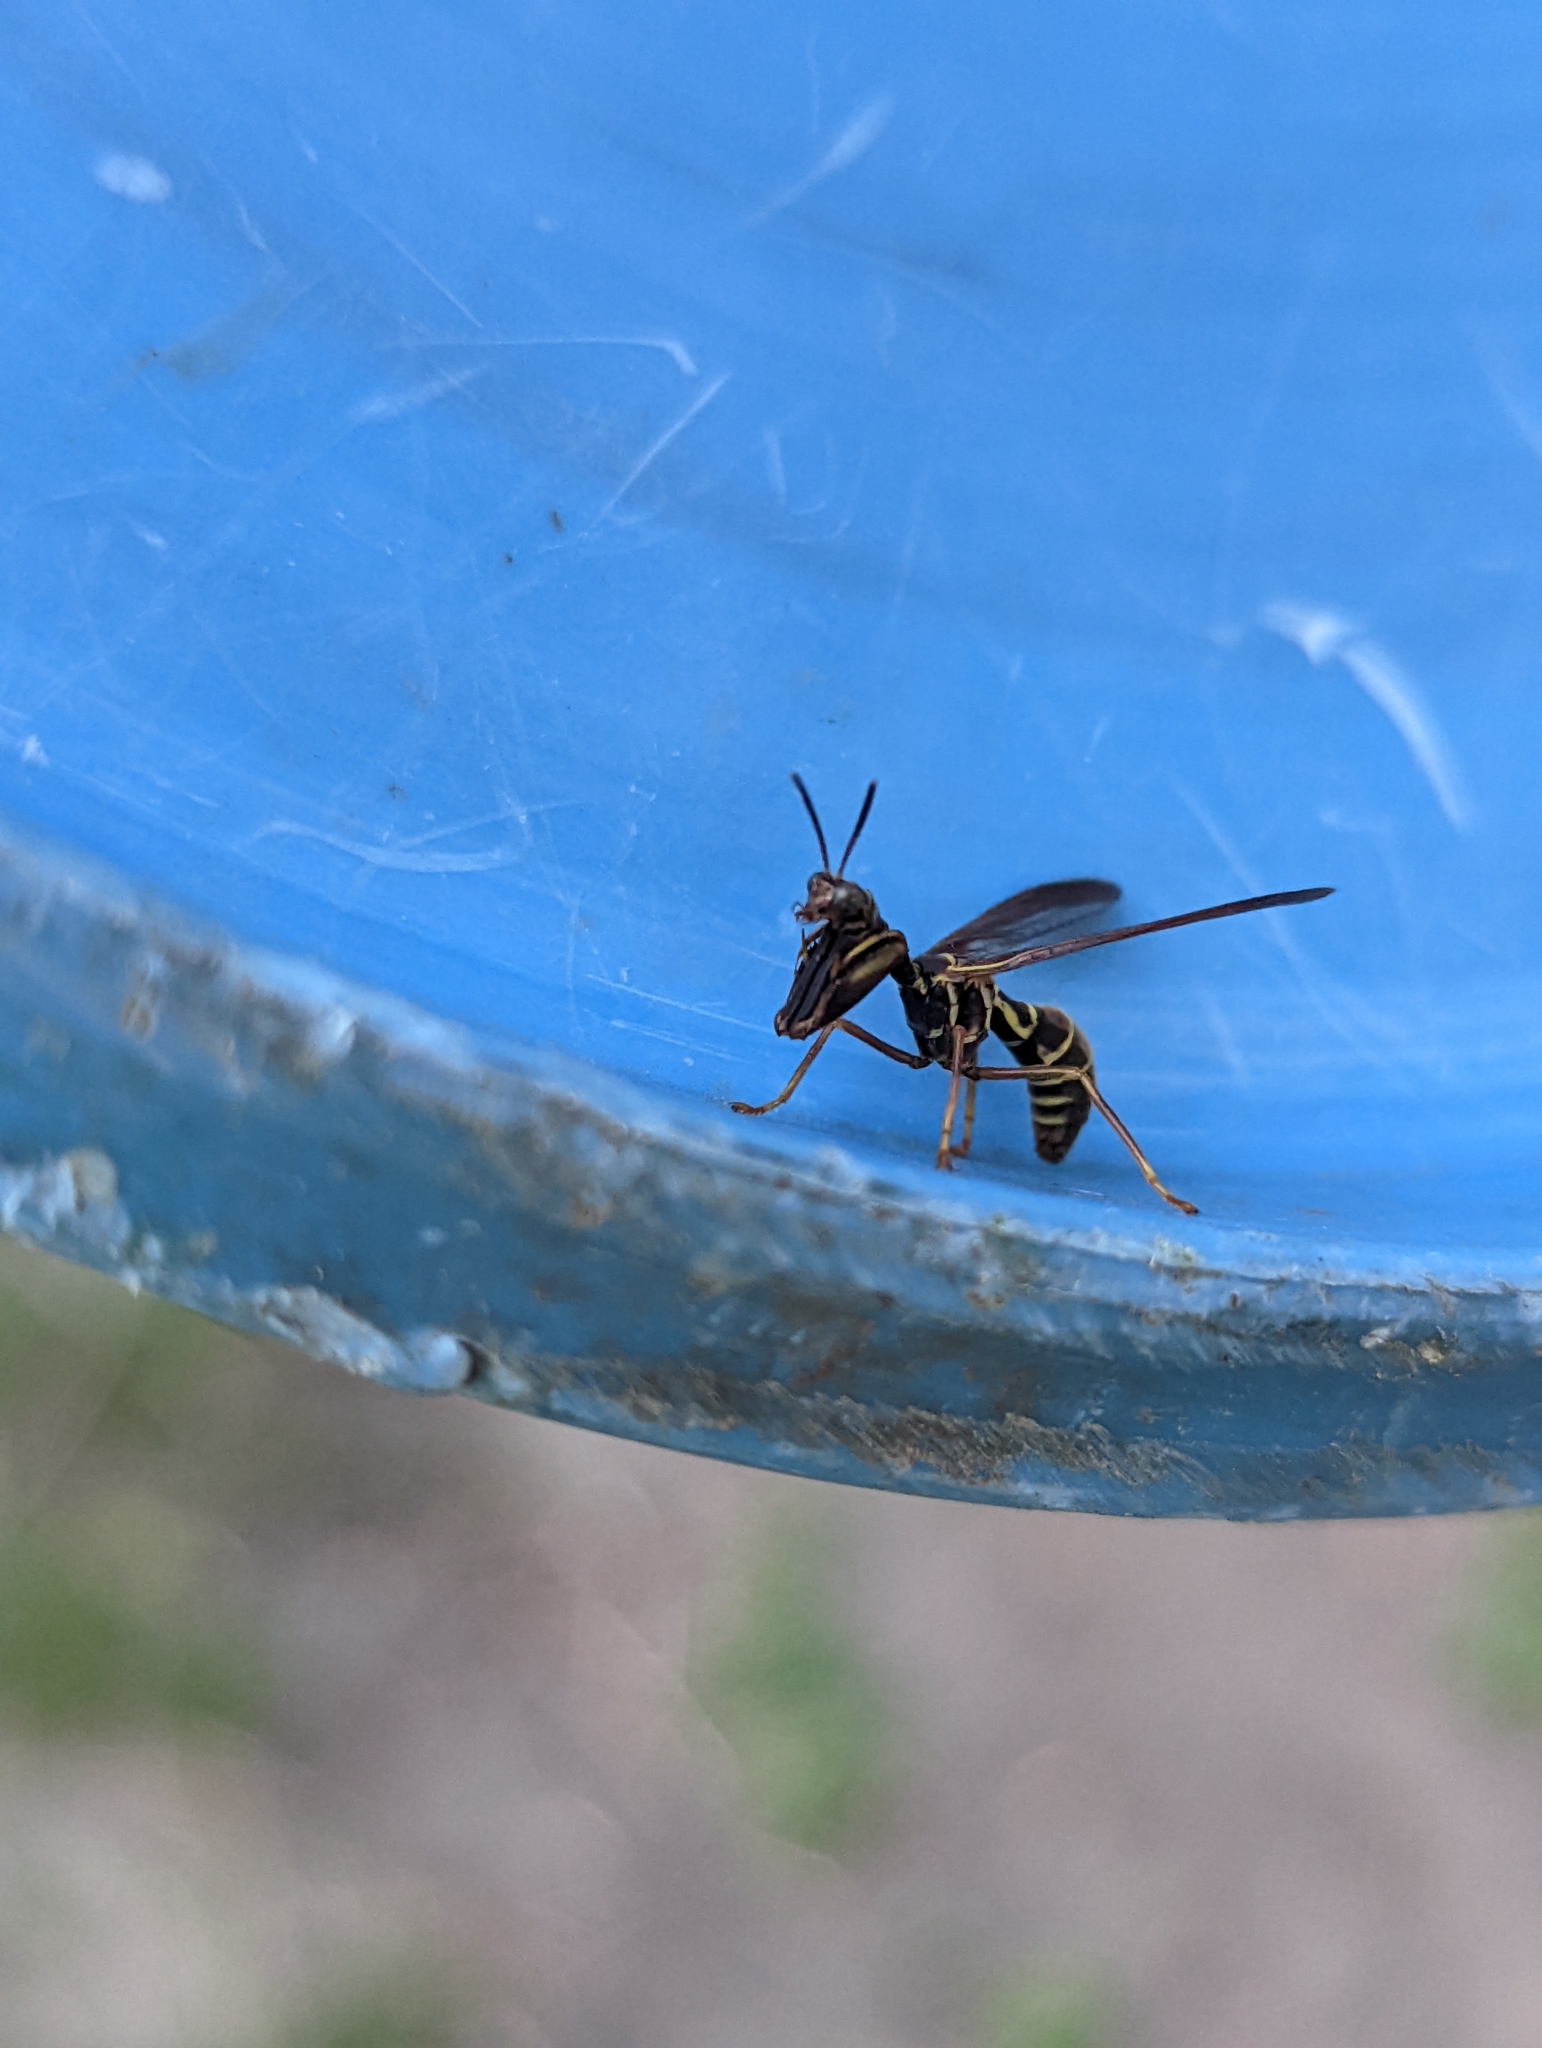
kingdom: Animalia
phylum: Arthropoda
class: Insecta
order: Neuroptera
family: Mantispidae
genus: Climaciella
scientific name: Climaciella brunnea
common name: Brown wasp mantidfly
